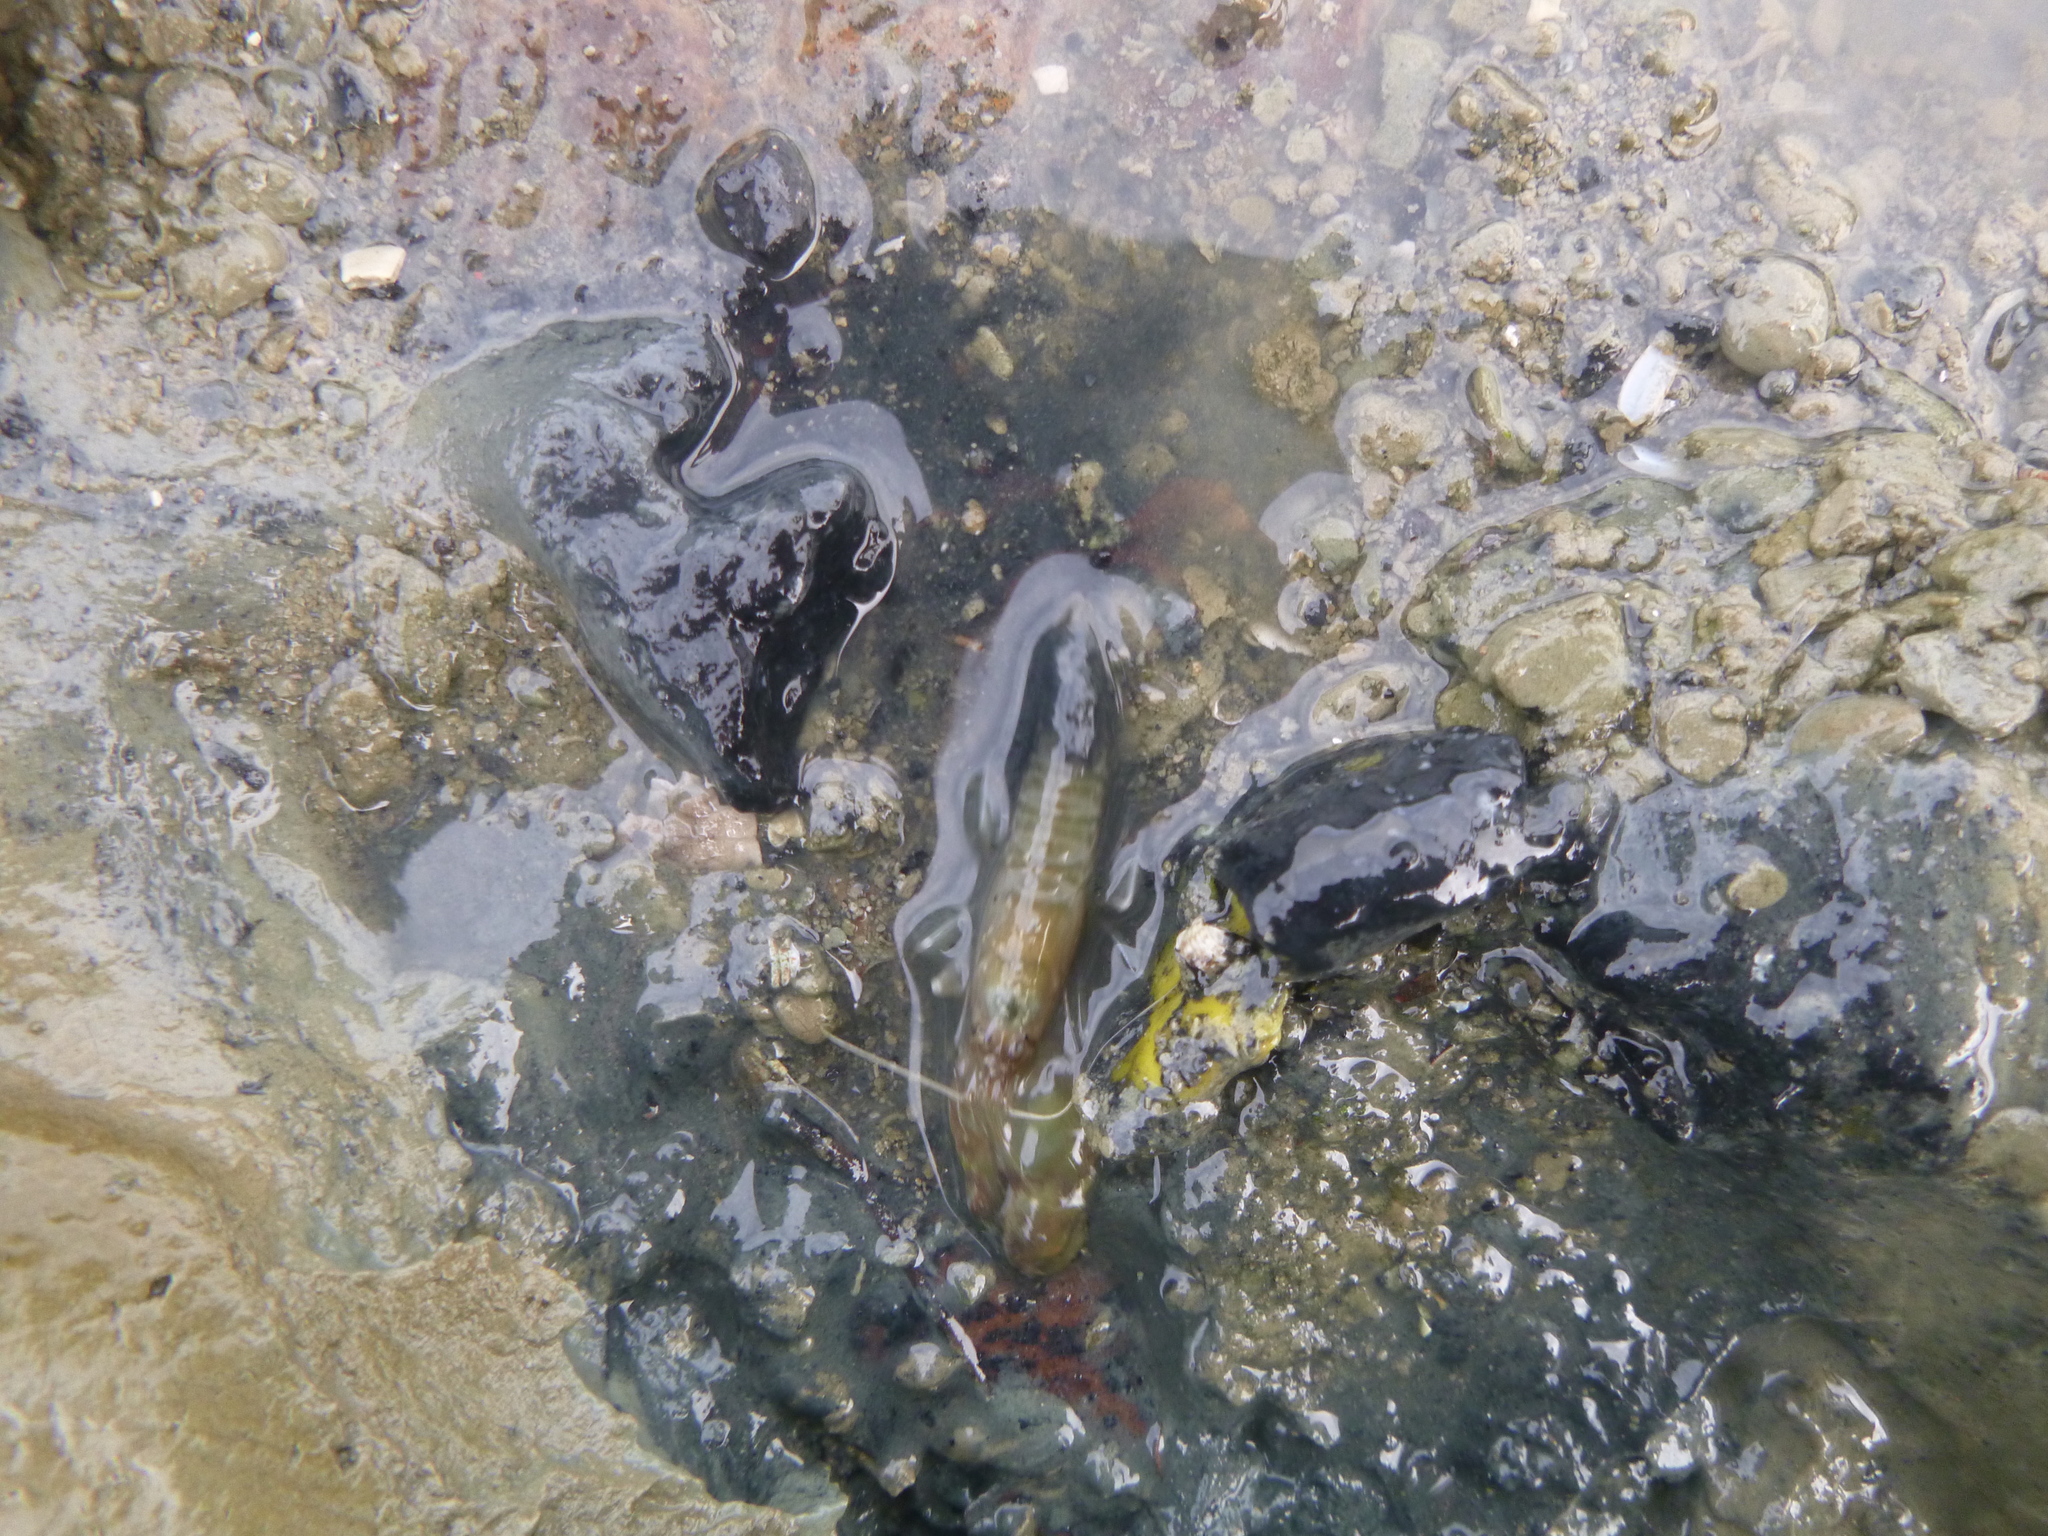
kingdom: Animalia
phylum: Arthropoda
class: Malacostraca
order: Decapoda
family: Alpheidae
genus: Alpheus
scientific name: Alpheus richardsoni
